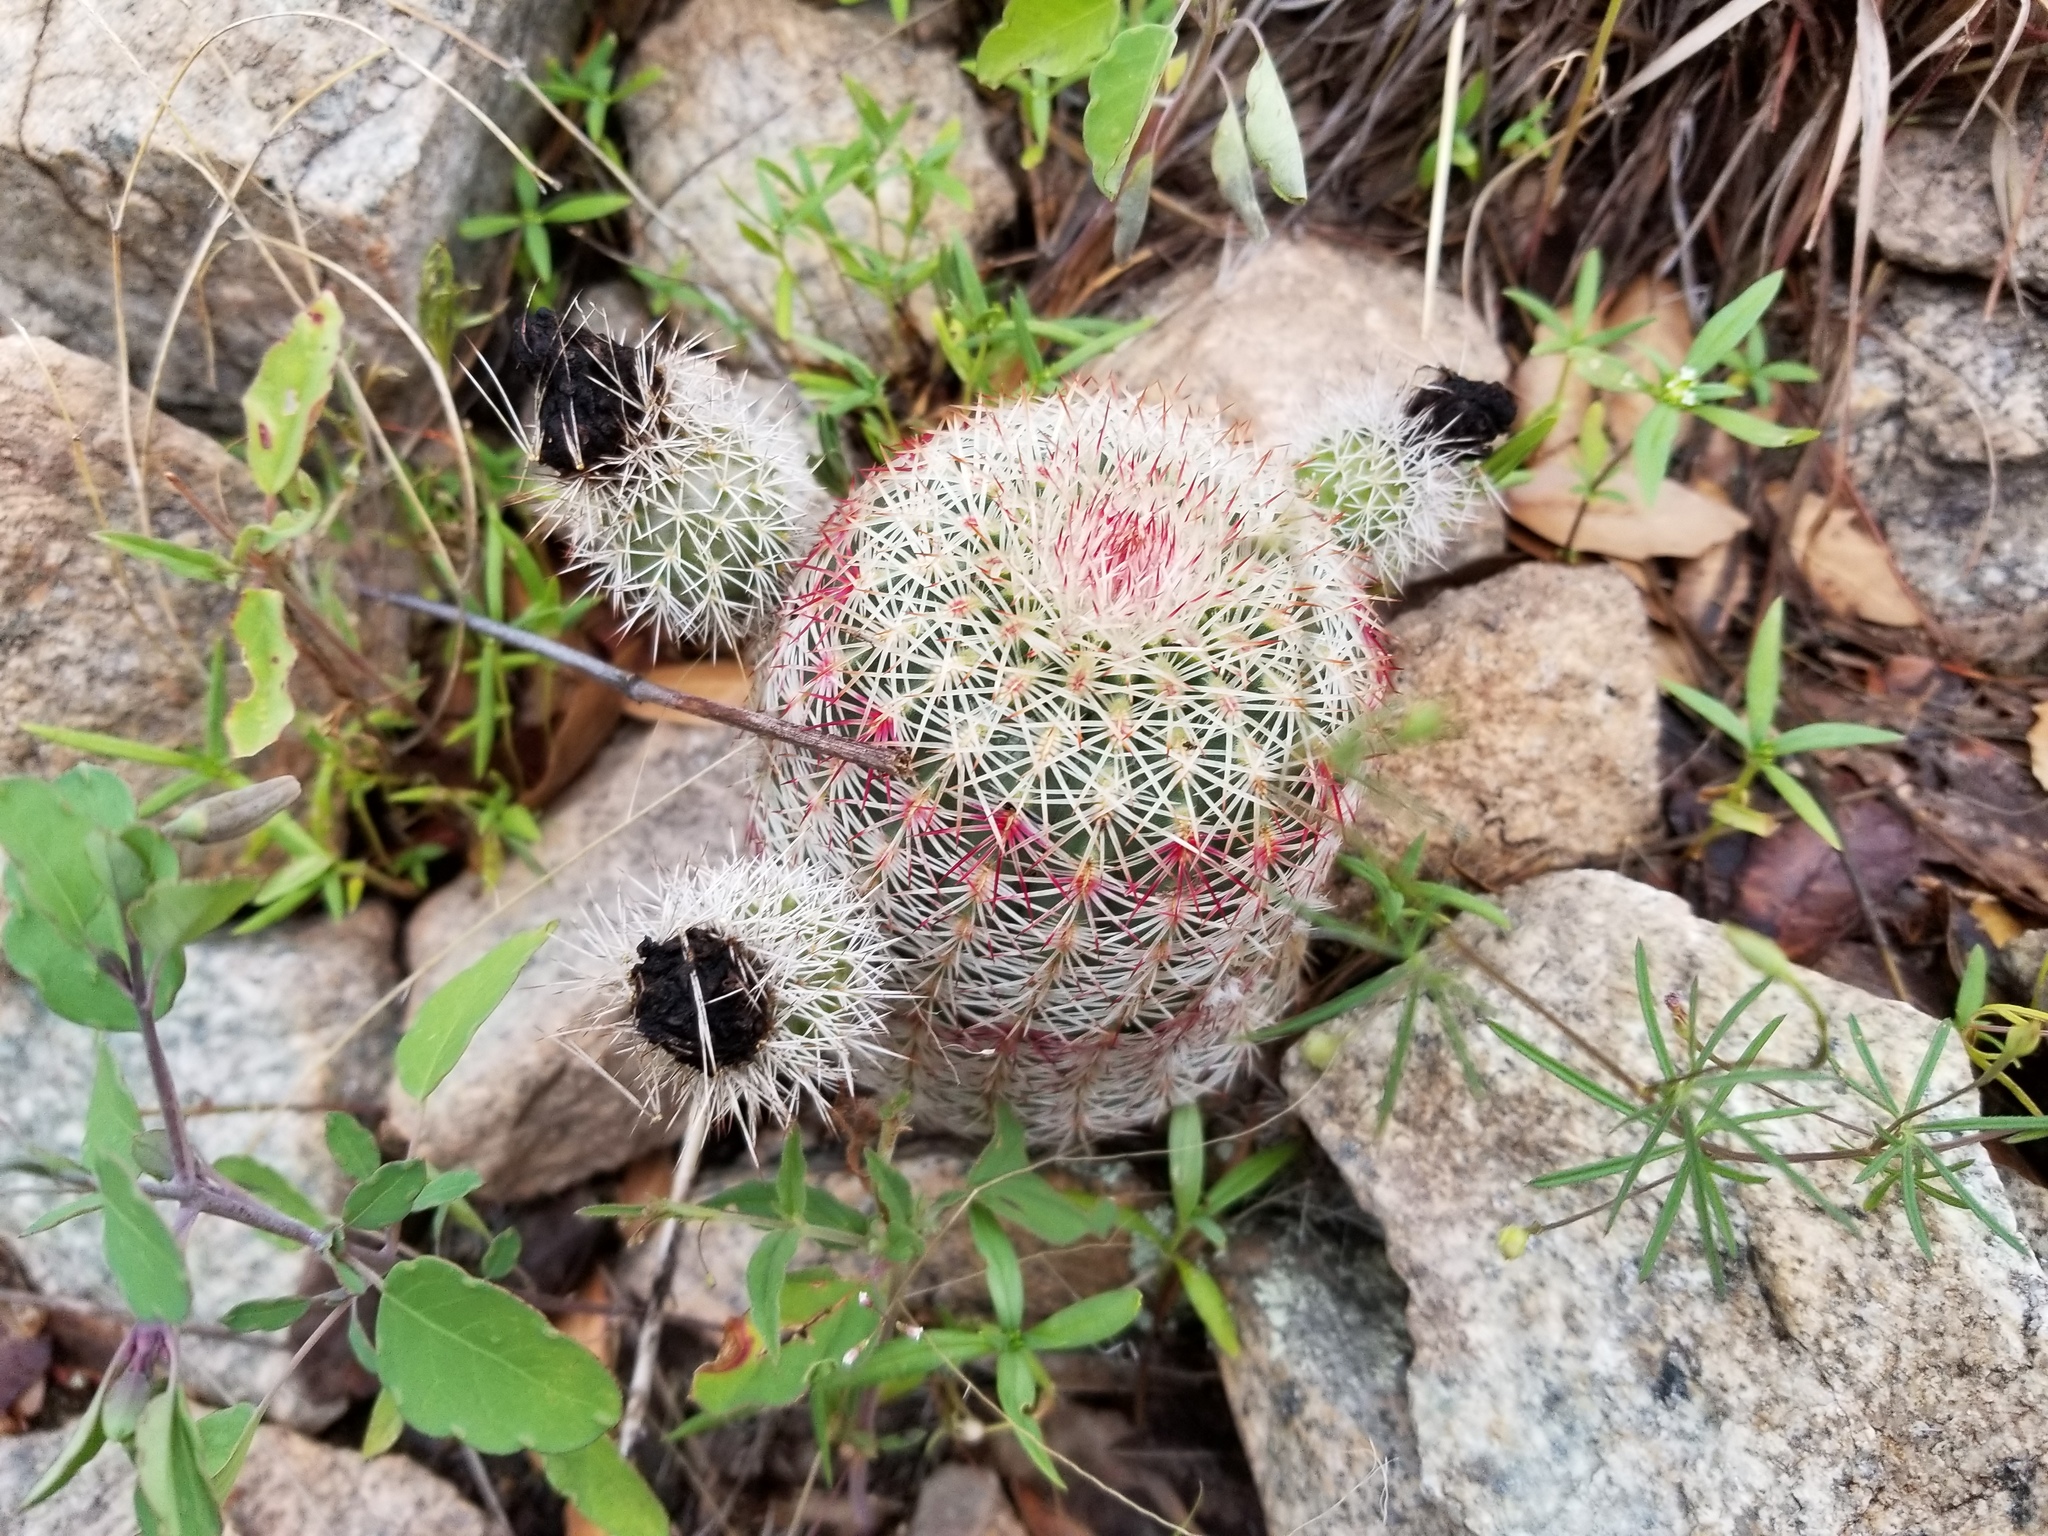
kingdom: Plantae
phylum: Tracheophyta
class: Magnoliopsida
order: Caryophyllales
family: Cactaceae
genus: Echinocereus
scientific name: Echinocereus rigidissimus
